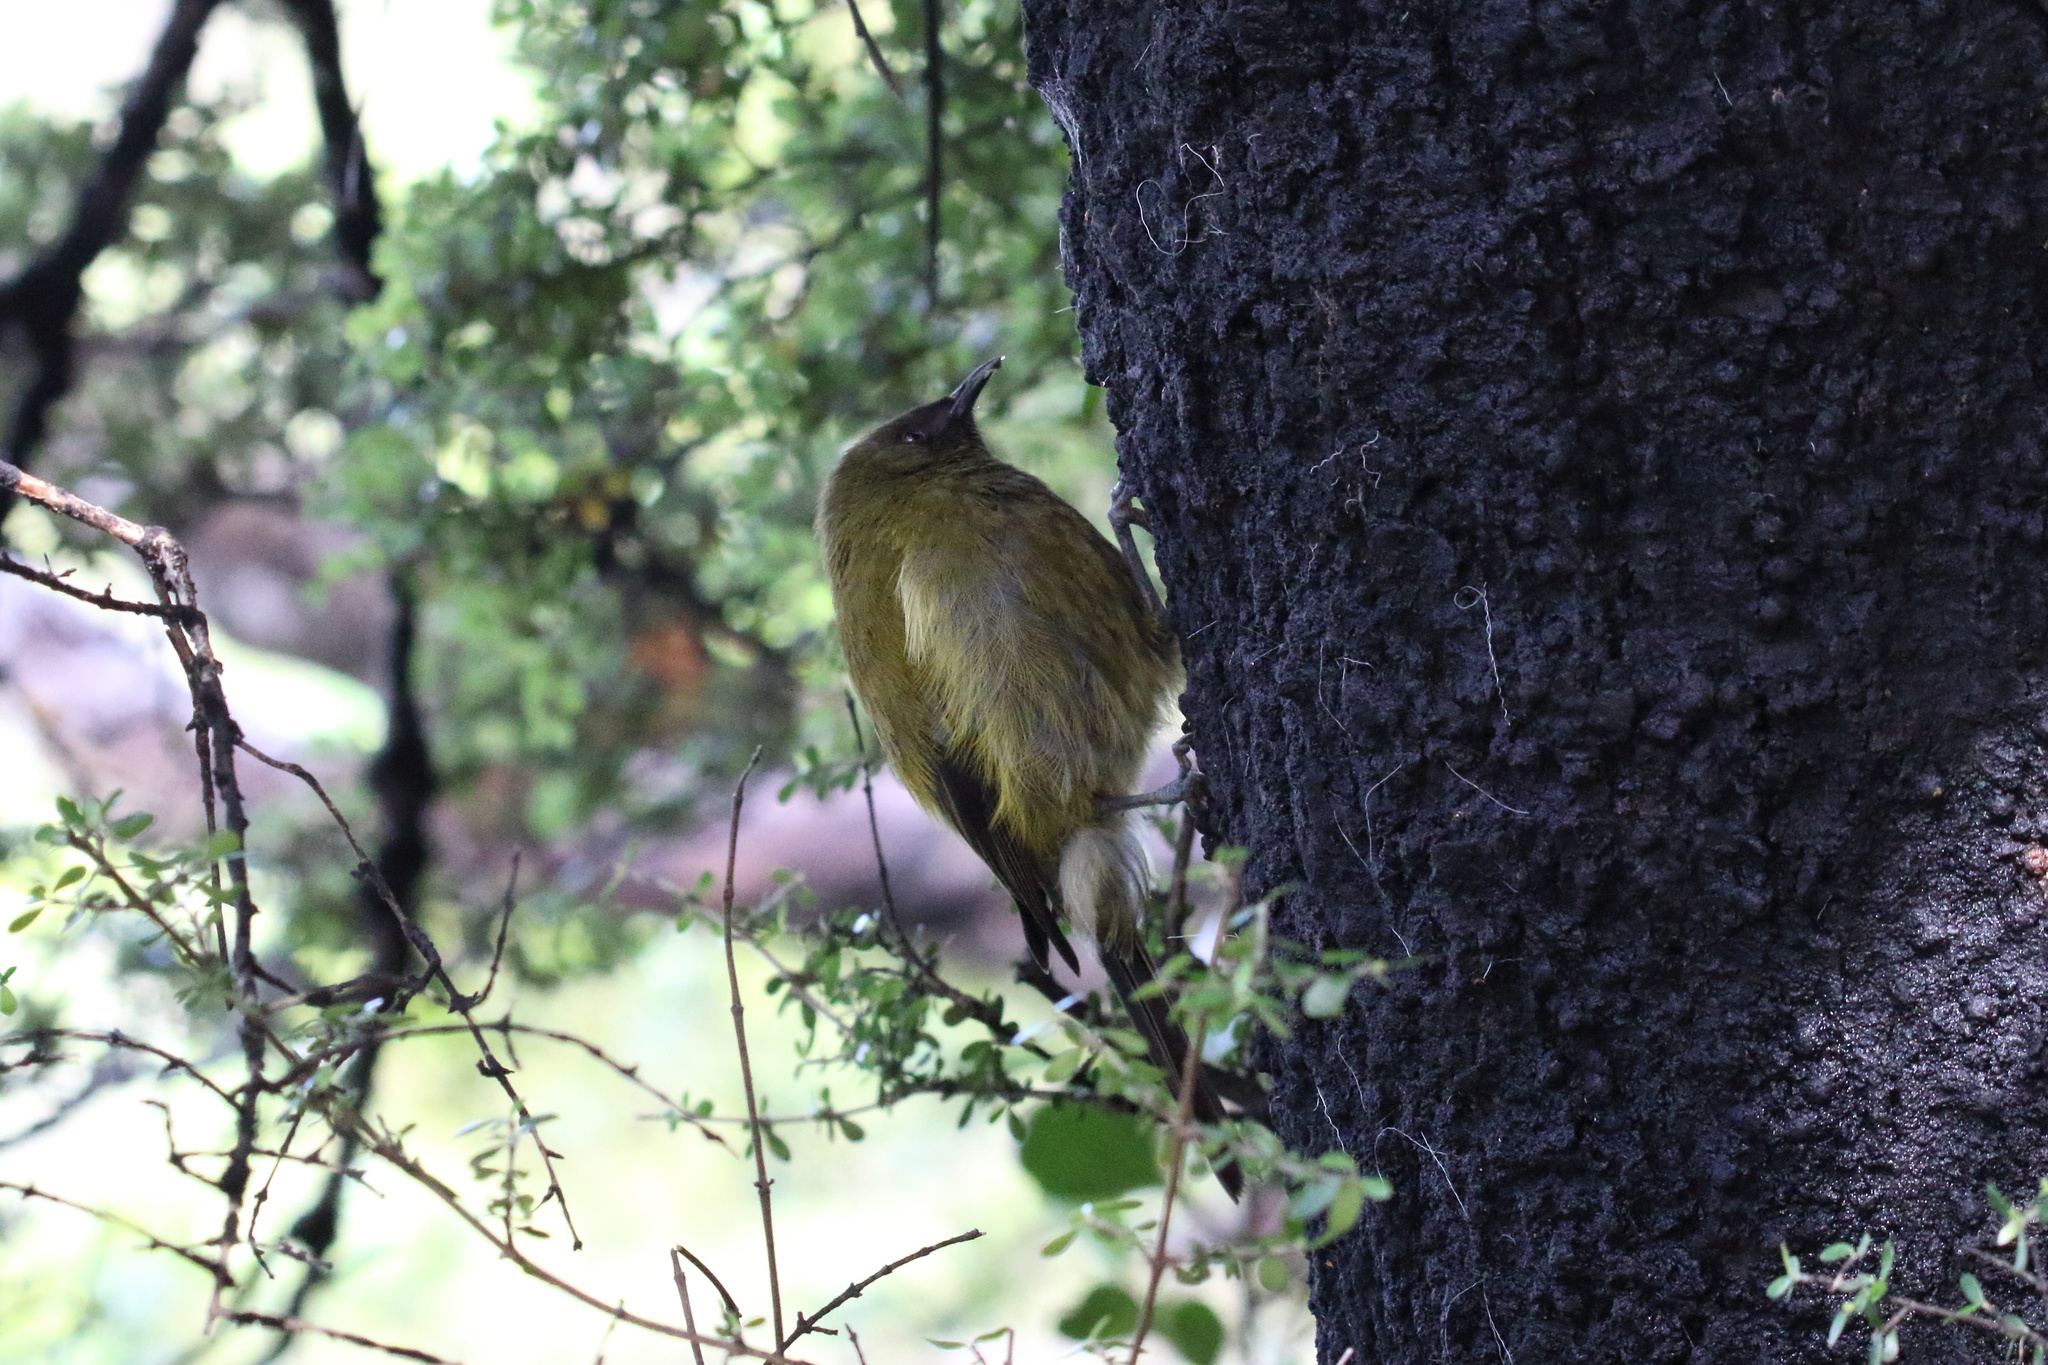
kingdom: Animalia
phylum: Chordata
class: Aves
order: Passeriformes
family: Meliphagidae
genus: Anthornis
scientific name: Anthornis melanura
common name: New zealand bellbird
